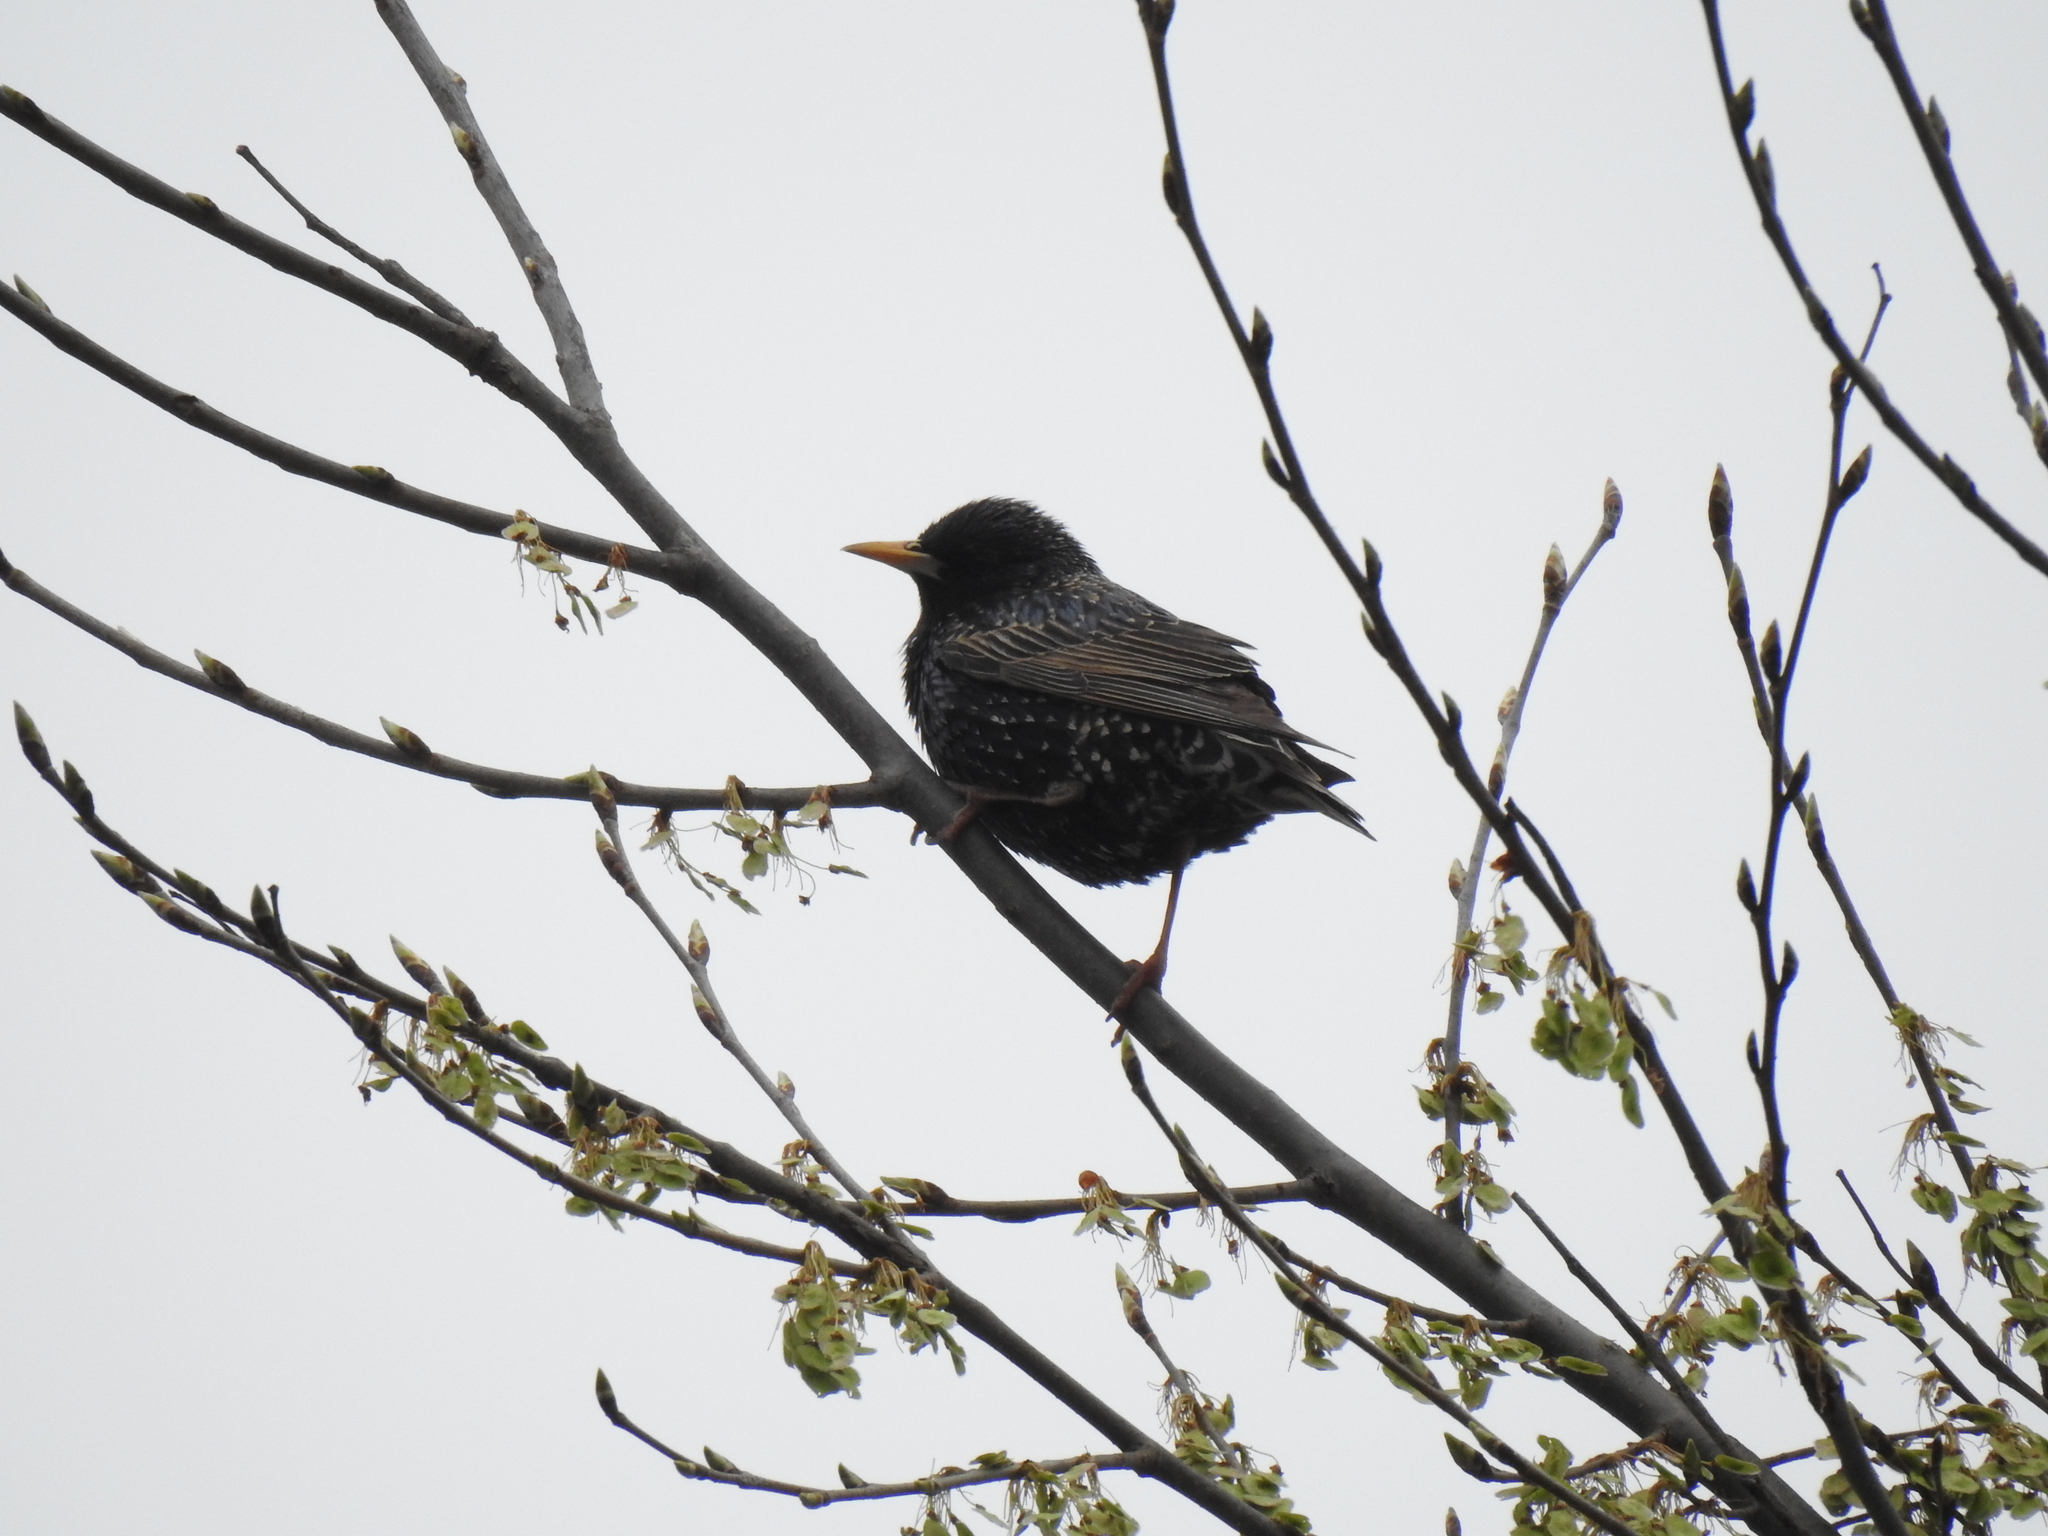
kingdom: Animalia
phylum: Chordata
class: Aves
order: Passeriformes
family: Sturnidae
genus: Sturnus
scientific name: Sturnus vulgaris
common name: Common starling
